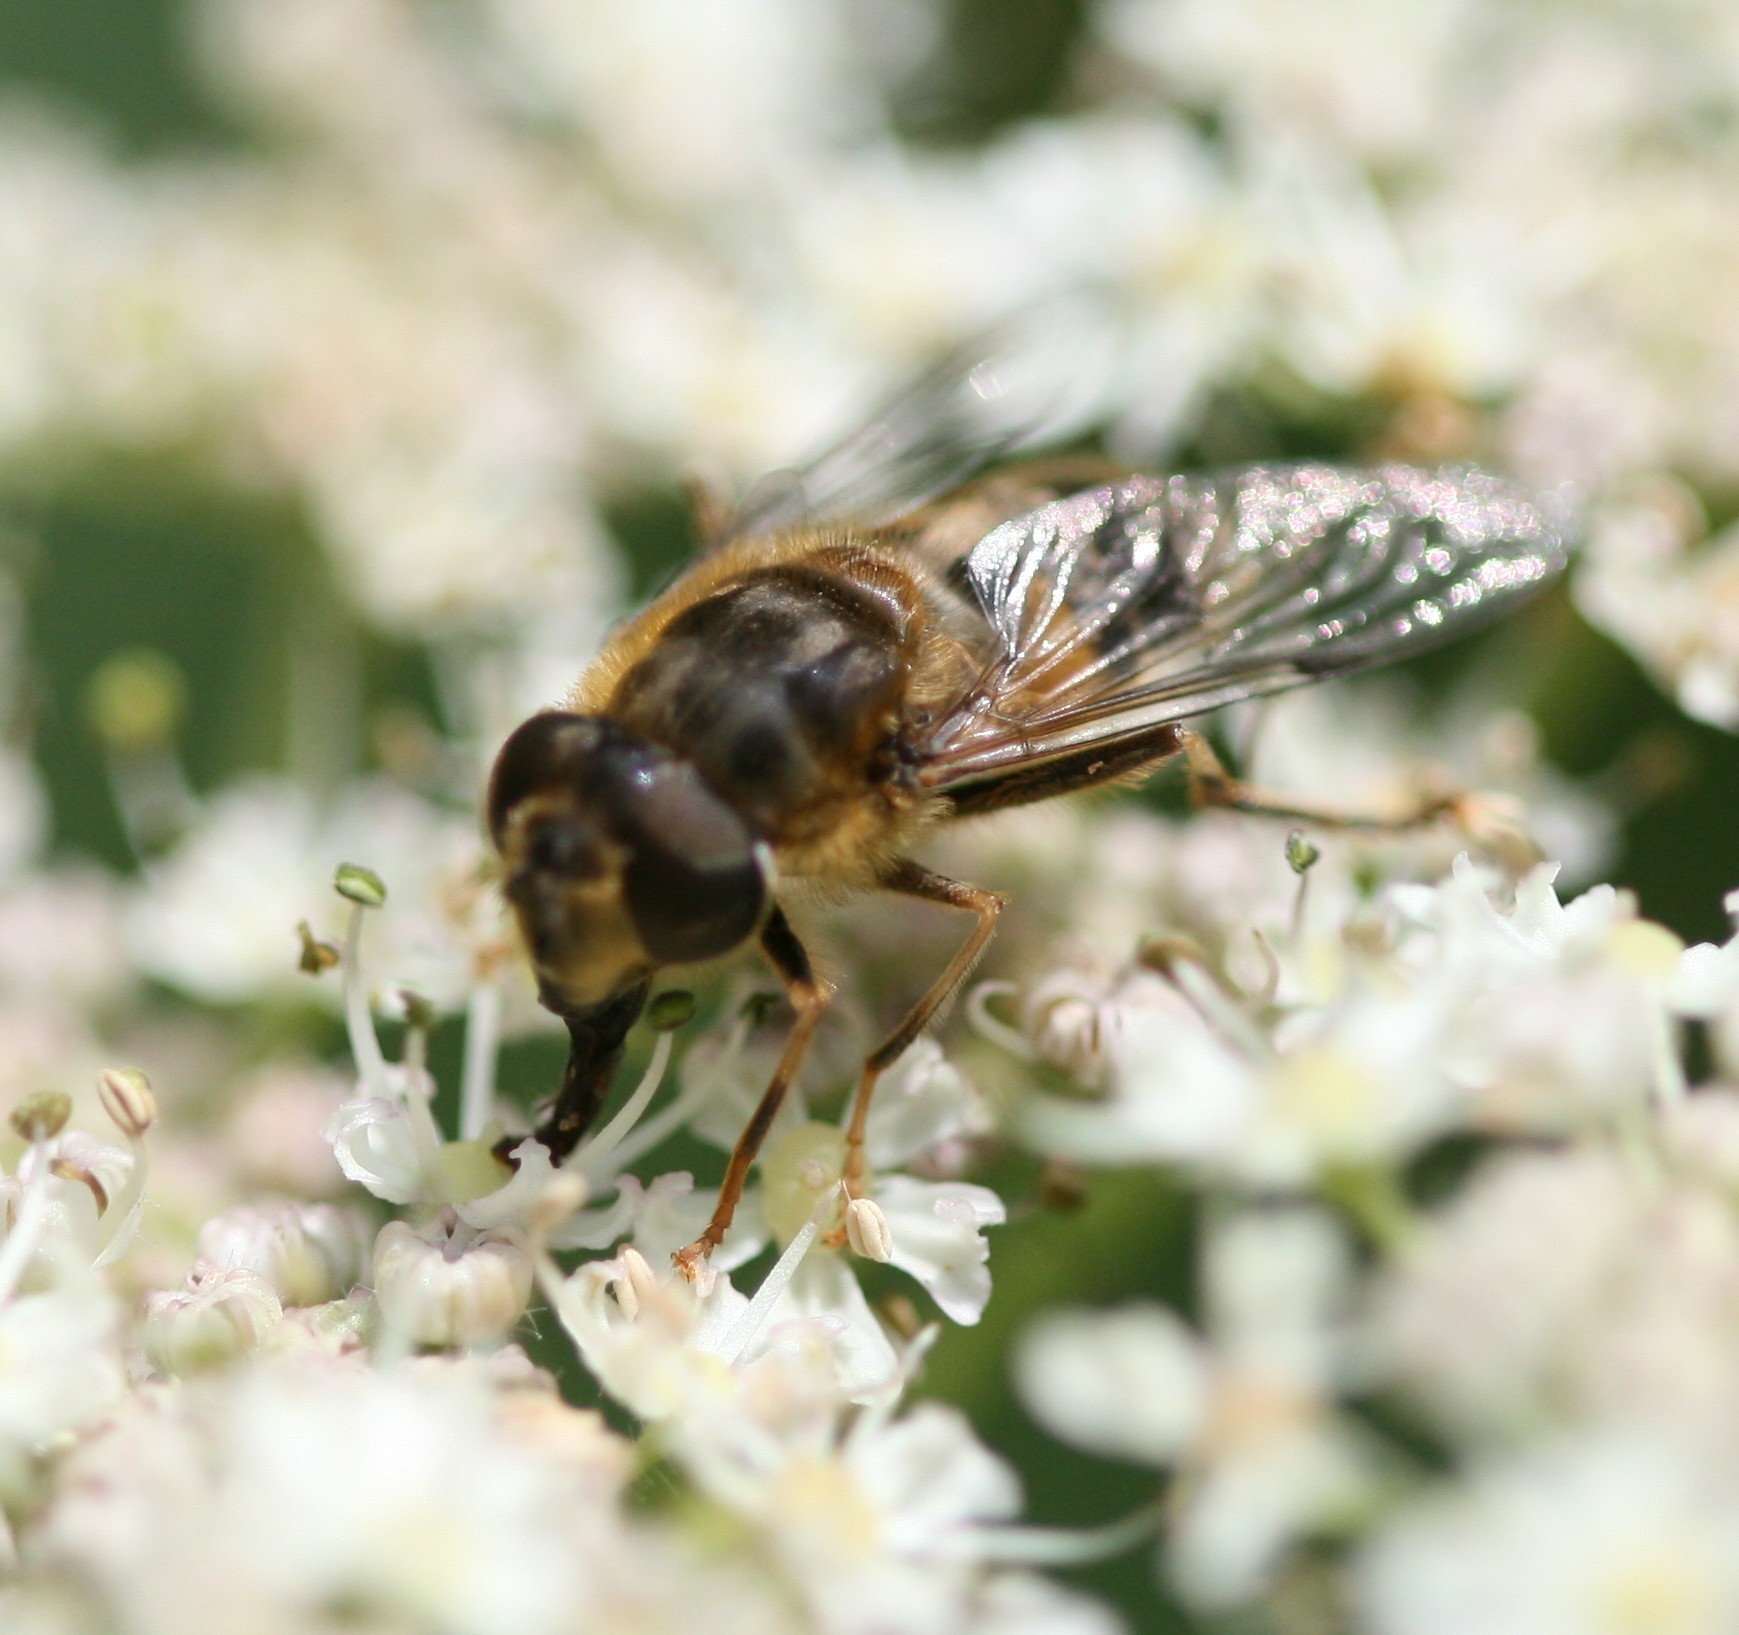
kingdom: Animalia
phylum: Arthropoda
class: Insecta
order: Diptera
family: Syrphidae
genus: Eristalis
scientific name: Eristalis pertinax
